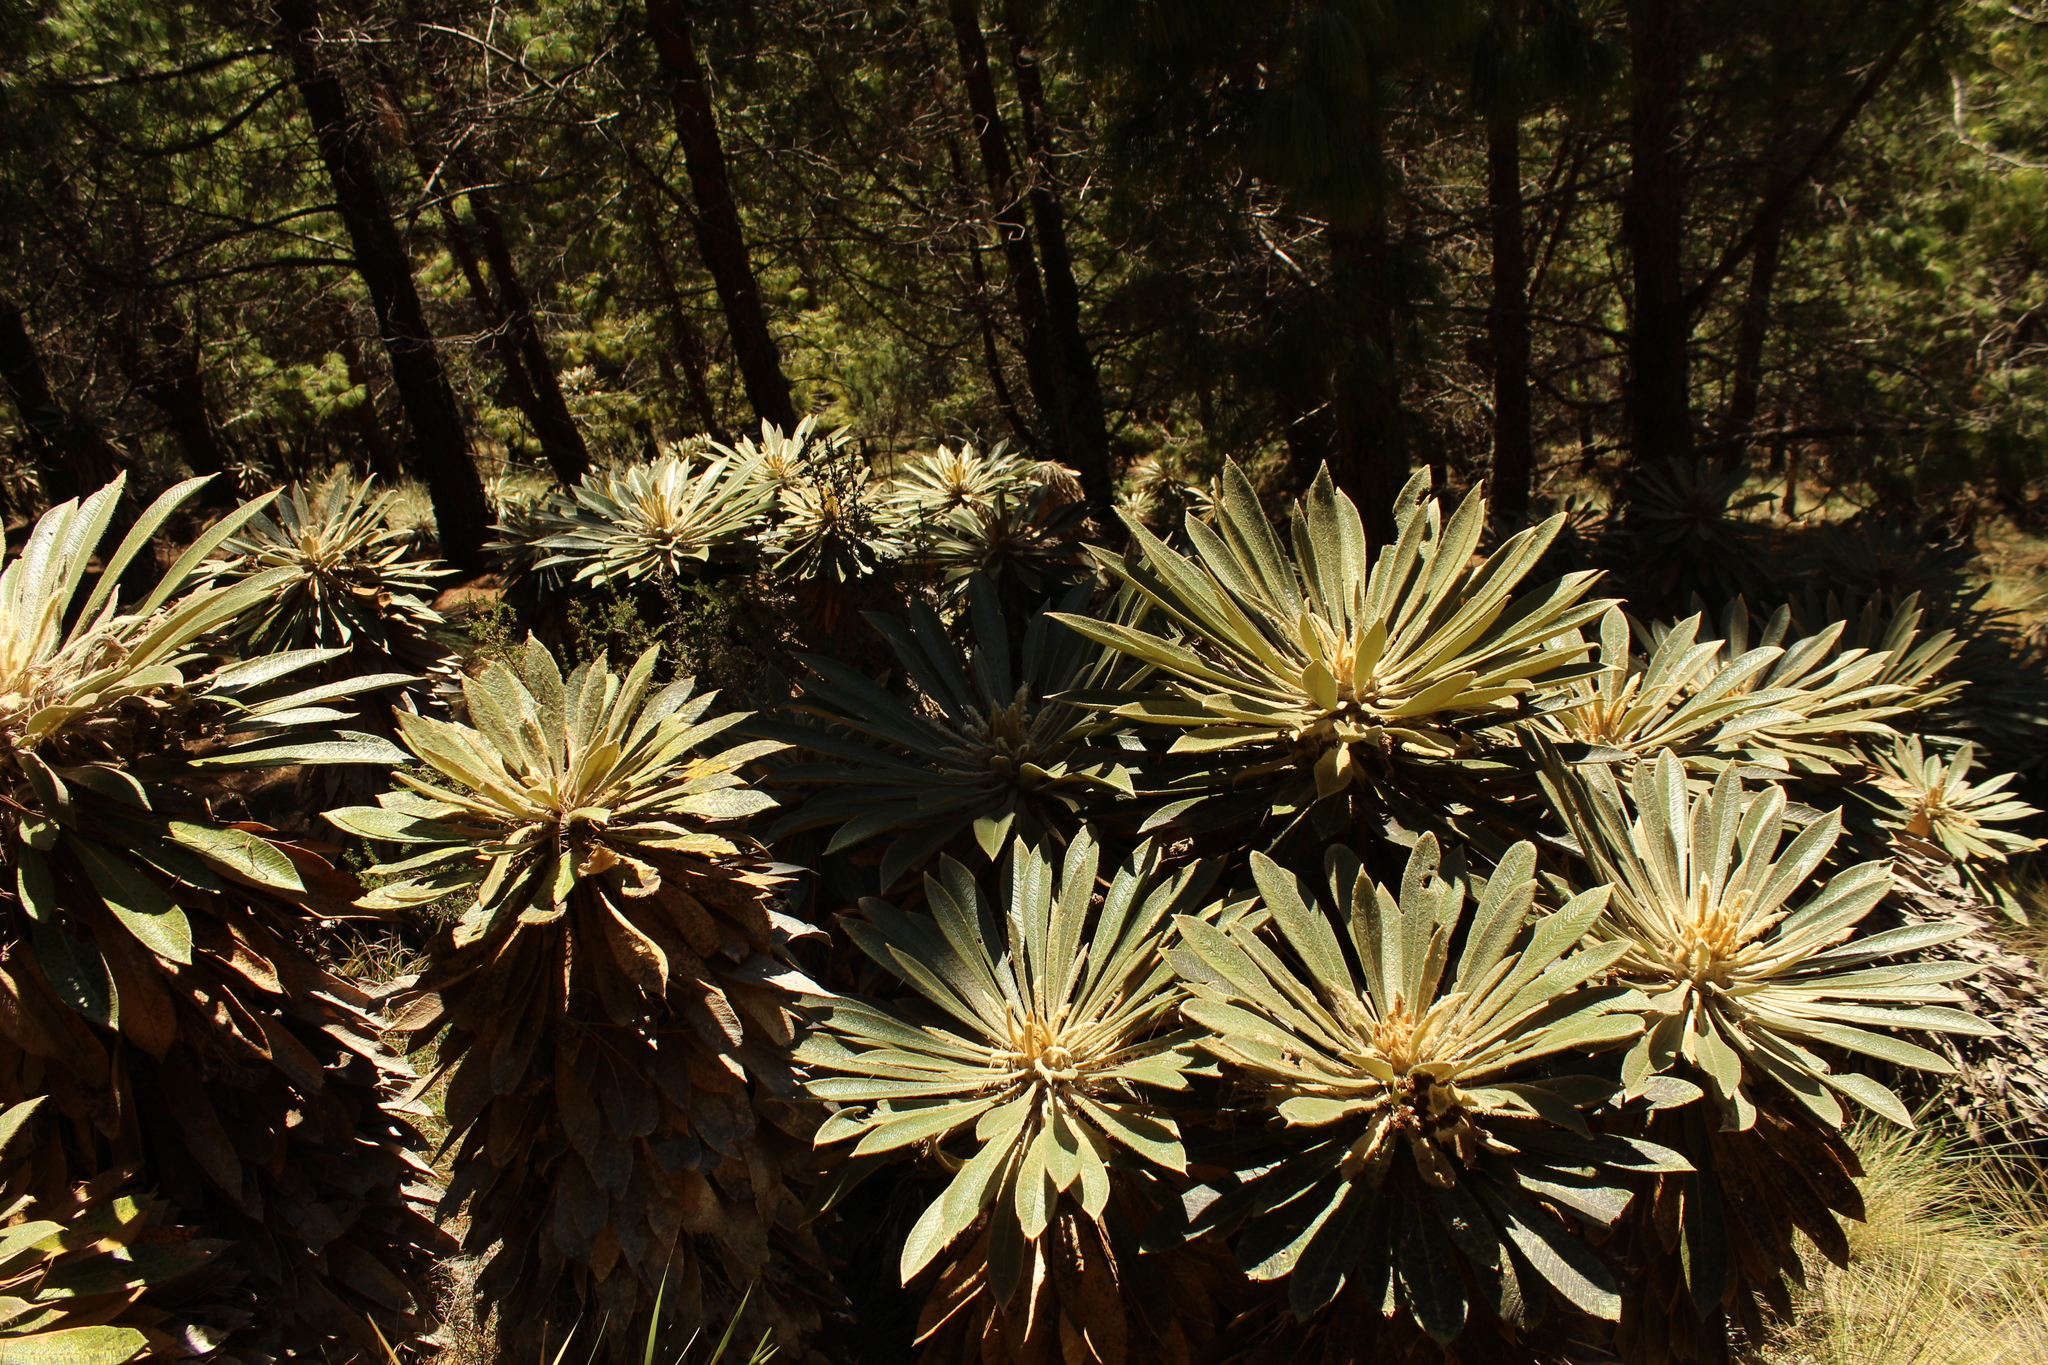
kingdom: Plantae
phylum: Tracheophyta
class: Magnoliopsida
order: Asterales
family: Asteraceae
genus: Espeletia
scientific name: Espeletia guacharaca
